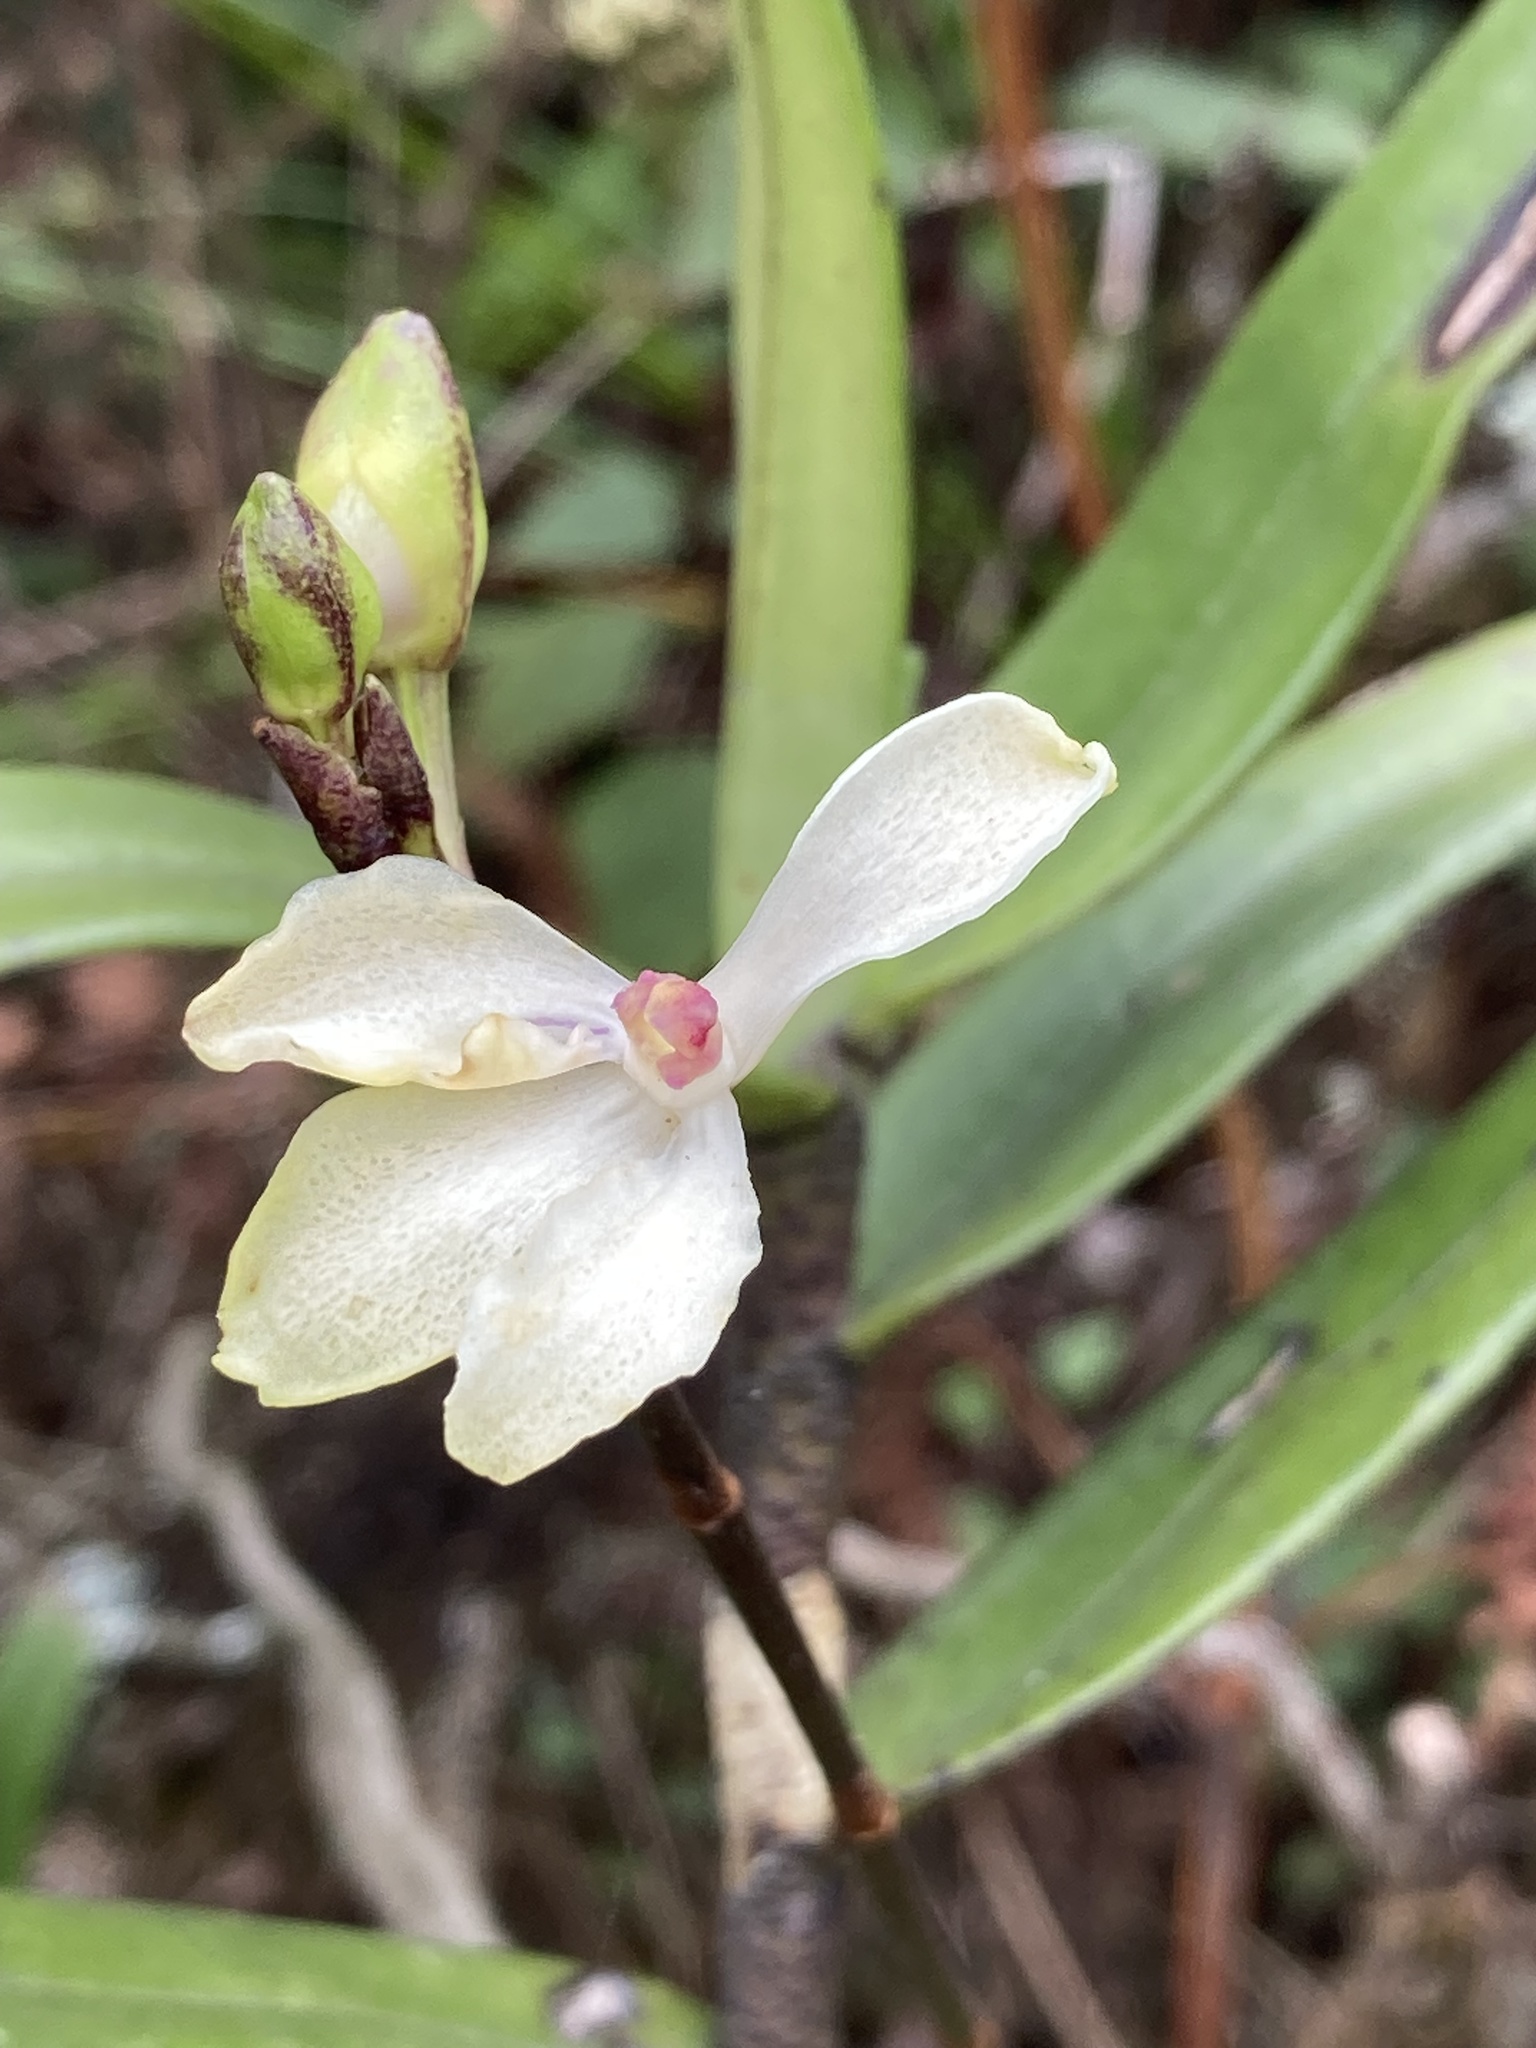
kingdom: Plantae
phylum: Tracheophyta
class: Liliopsida
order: Asparagales
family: Orchidaceae
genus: Cymbilabia
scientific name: Cymbilabia undulata
